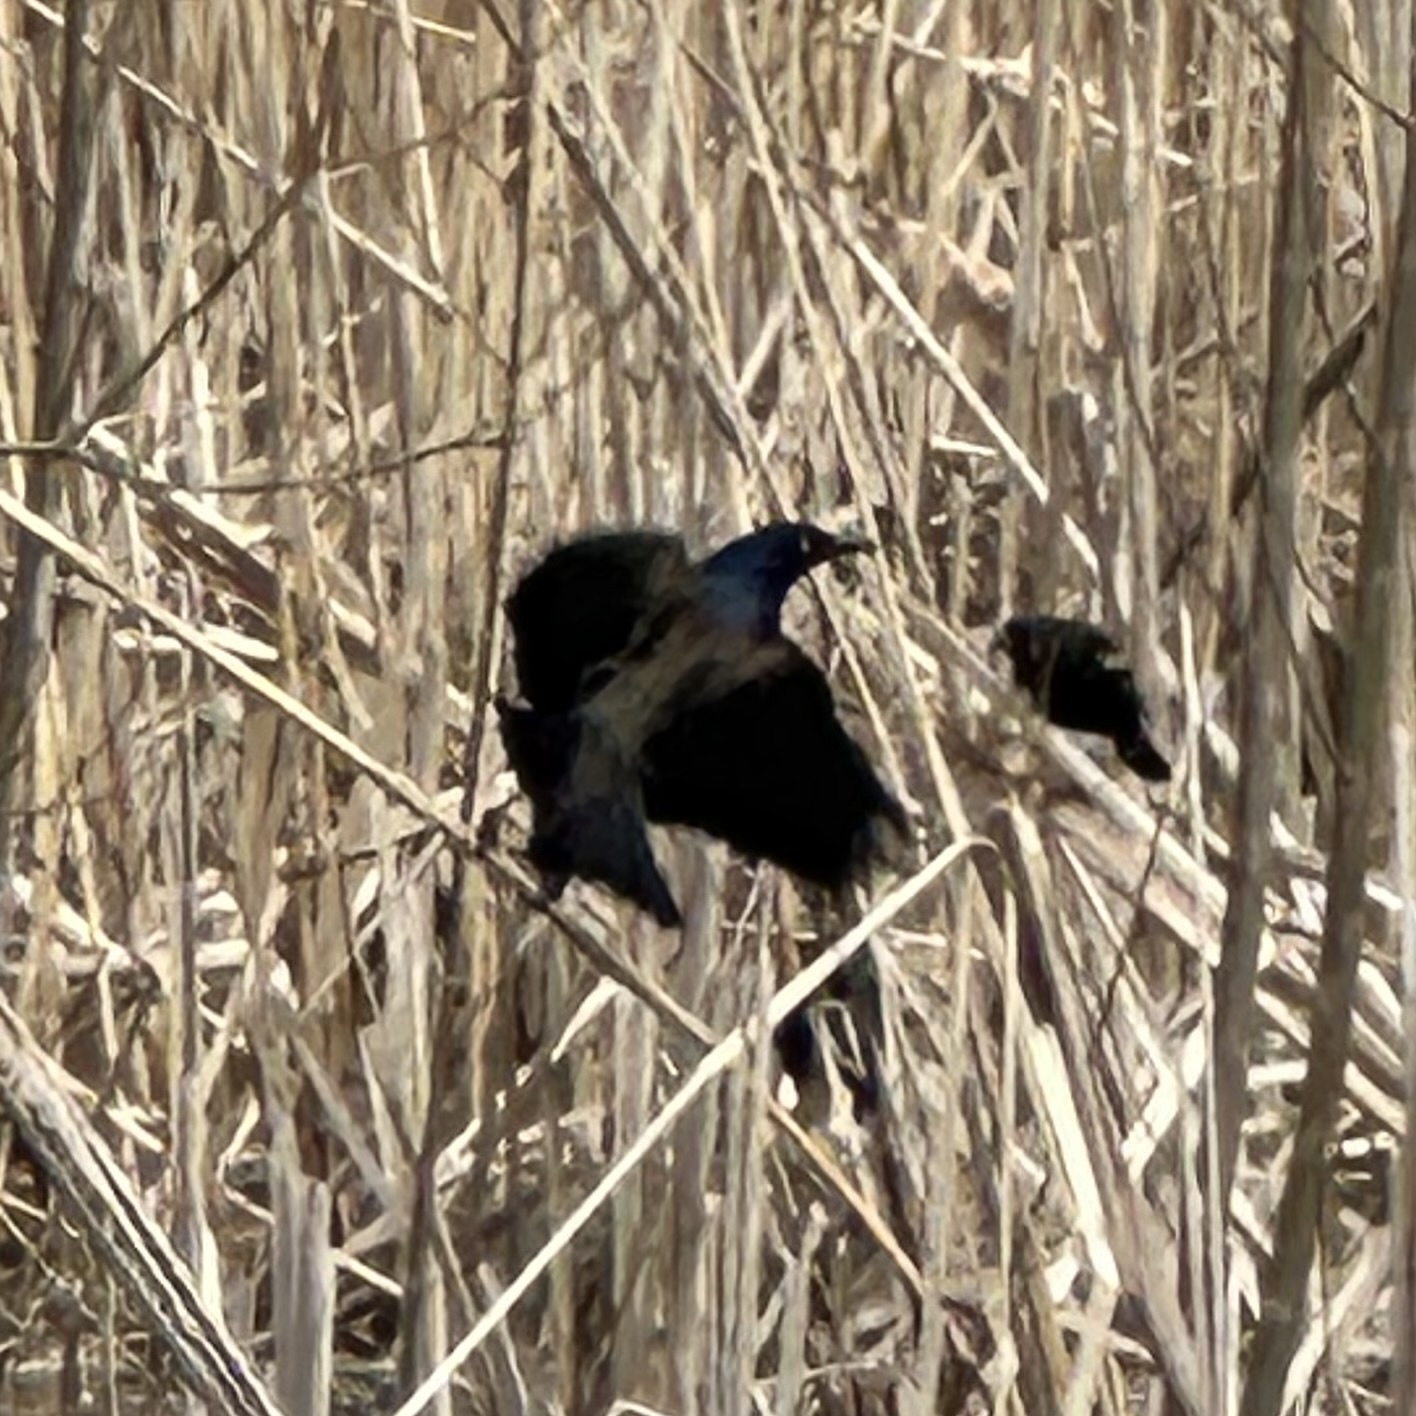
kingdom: Animalia
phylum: Chordata
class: Aves
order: Passeriformes
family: Icteridae
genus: Quiscalus
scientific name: Quiscalus quiscula
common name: Common grackle
